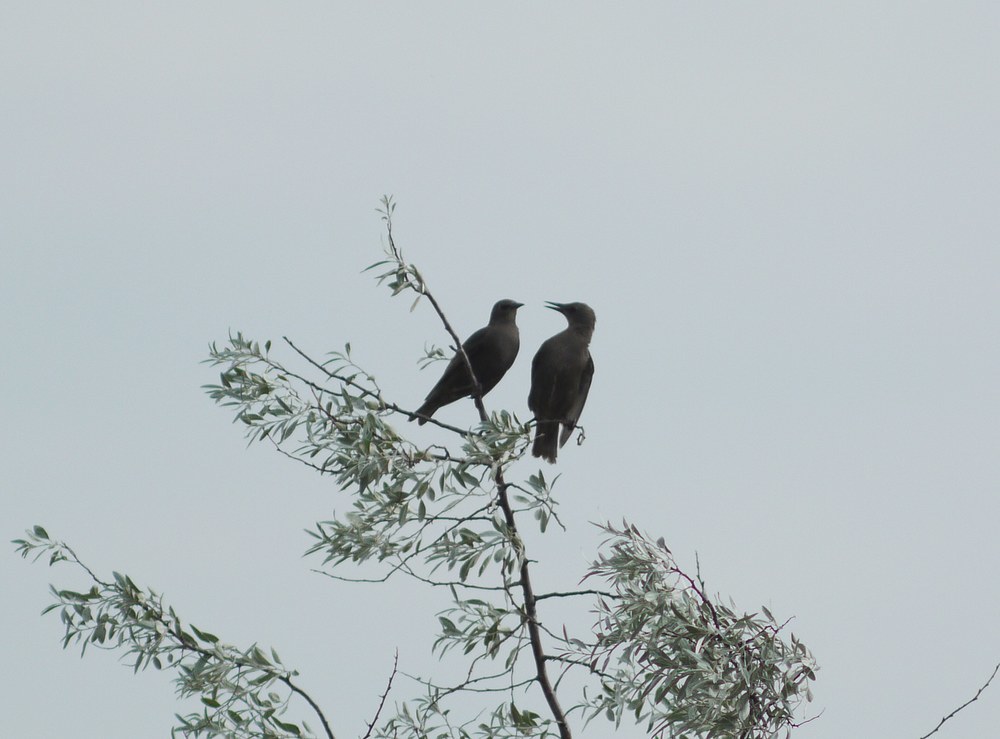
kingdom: Animalia
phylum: Chordata
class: Aves
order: Passeriformes
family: Sturnidae
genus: Sturnus
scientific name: Sturnus vulgaris
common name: Common starling
